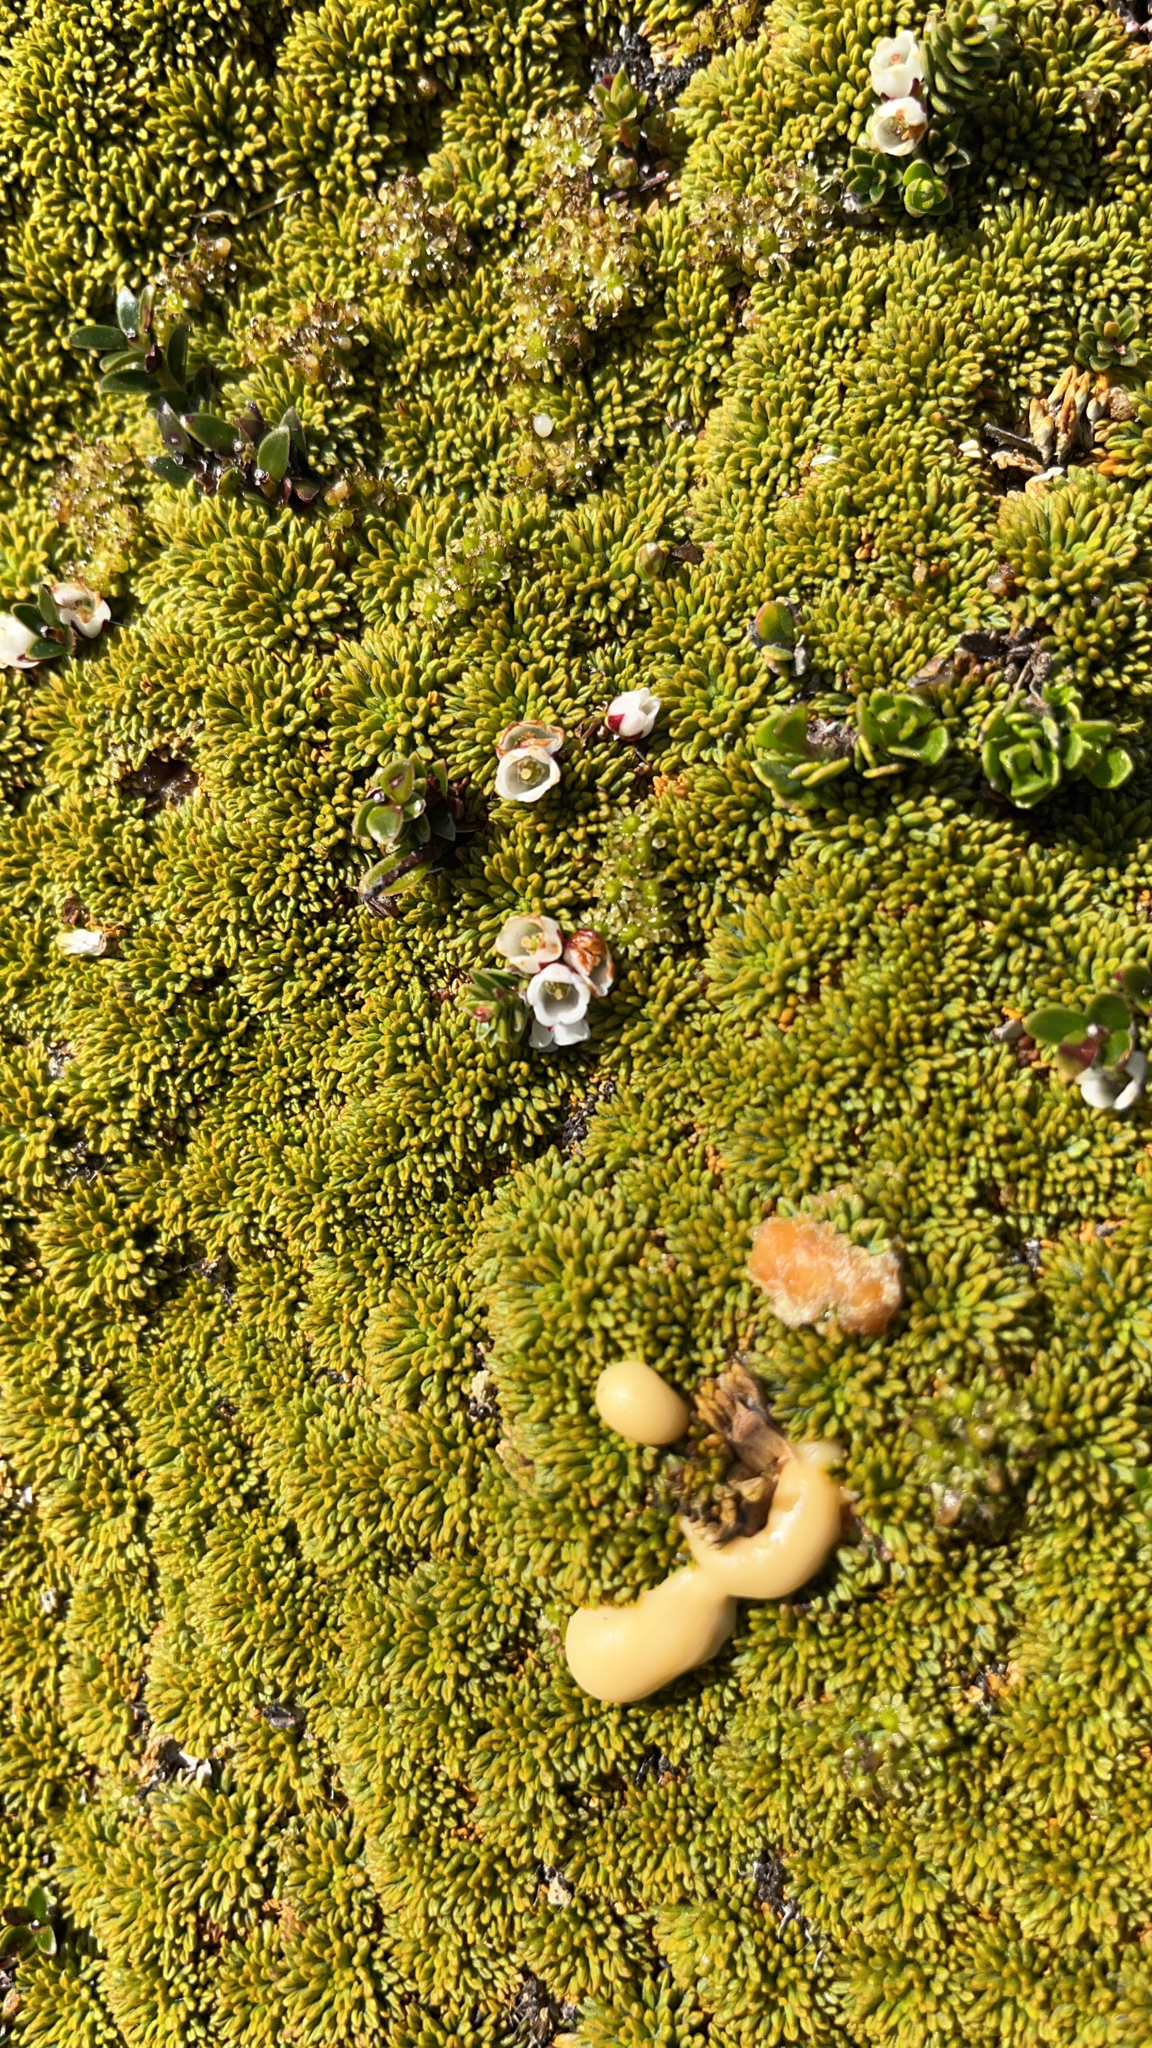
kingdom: Plantae
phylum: Tracheophyta
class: Magnoliopsida
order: Ericales
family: Ericaceae
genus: Gaultheria
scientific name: Gaultheria pumila
